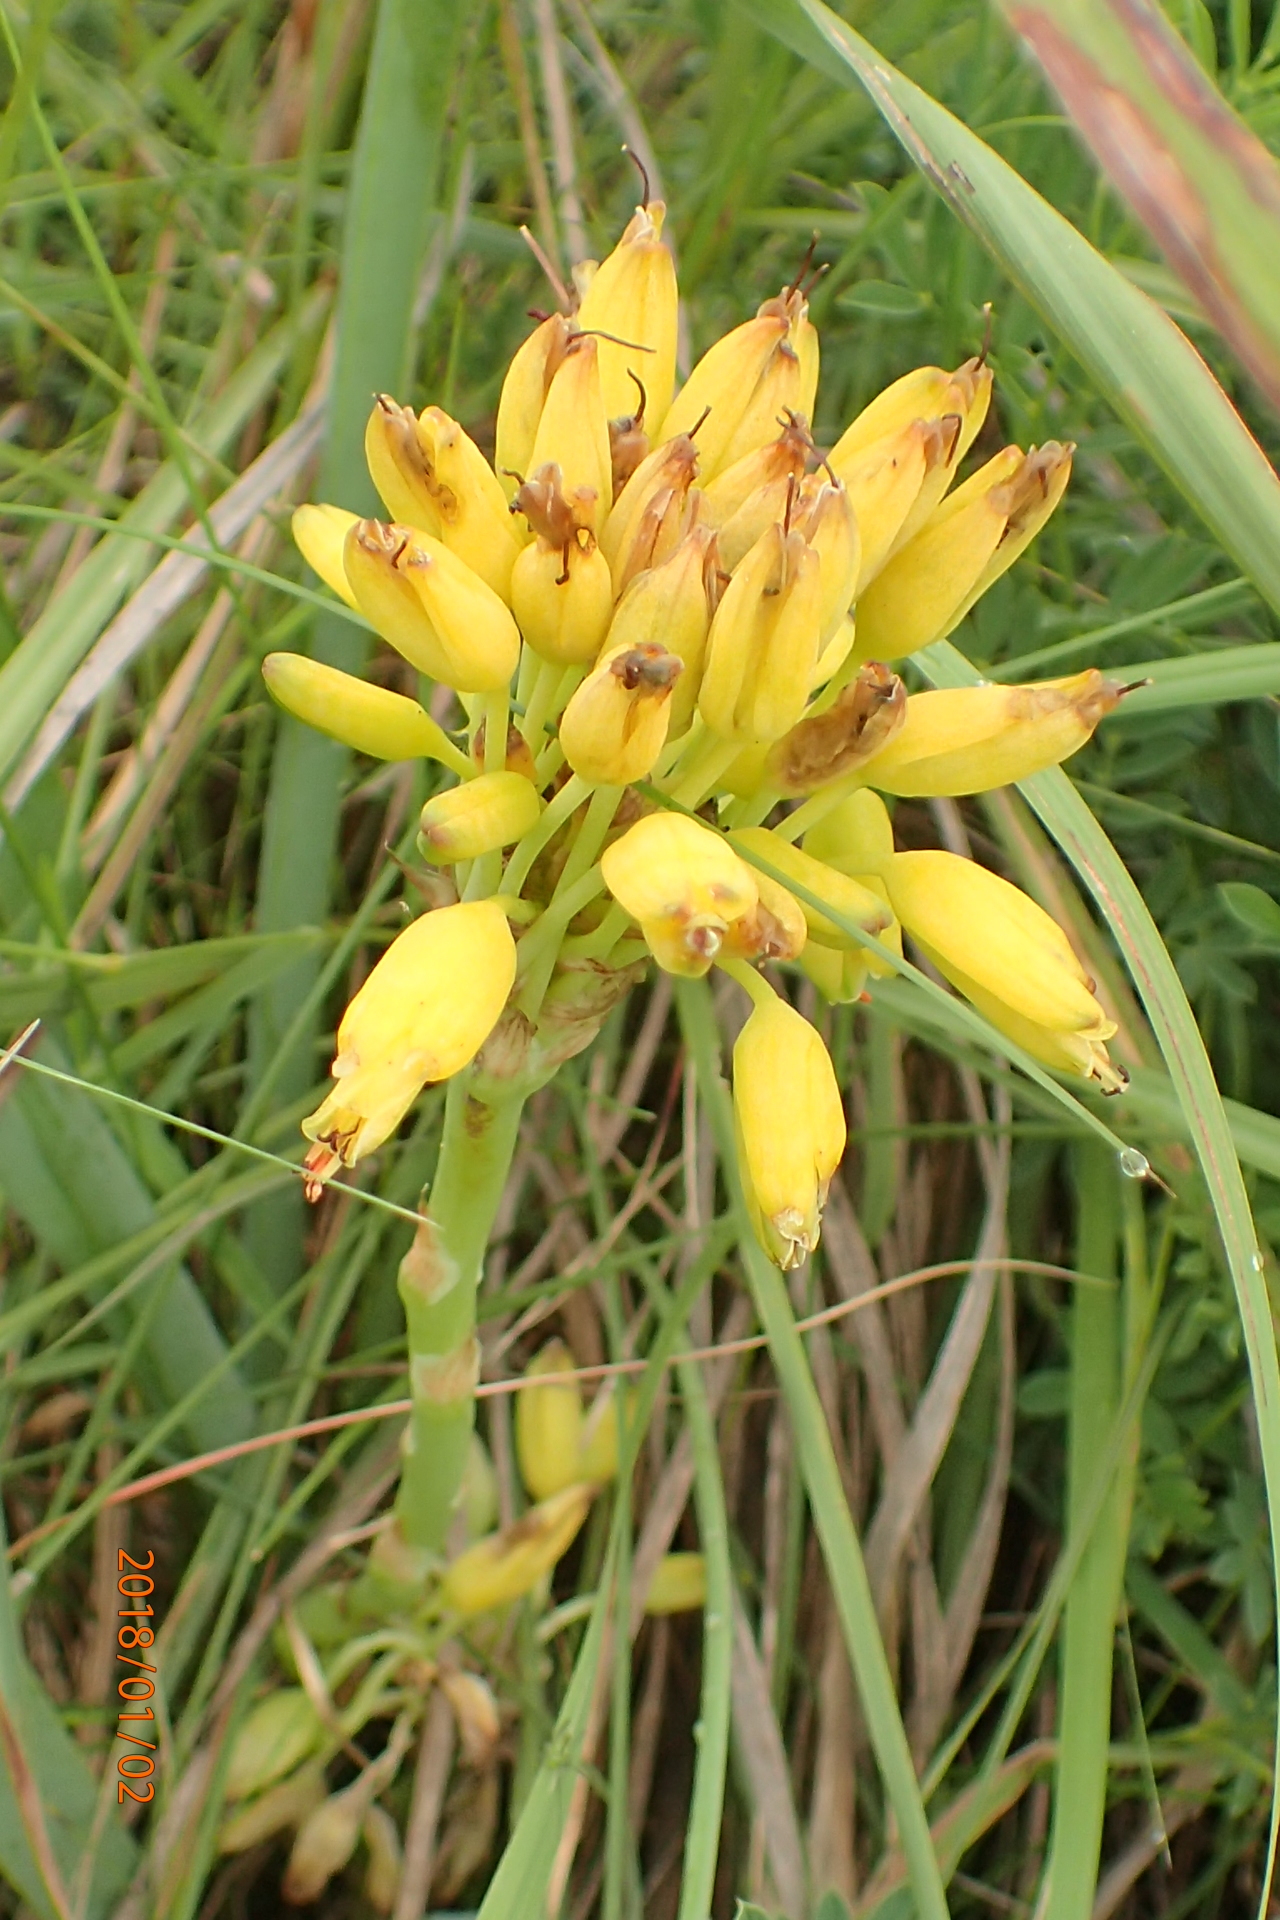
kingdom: Plantae
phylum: Tracheophyta
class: Liliopsida
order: Asparagales
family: Asphodelaceae
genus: Aloe
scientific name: Aloe kraussii
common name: Broad-leaved yellow grass aloe
